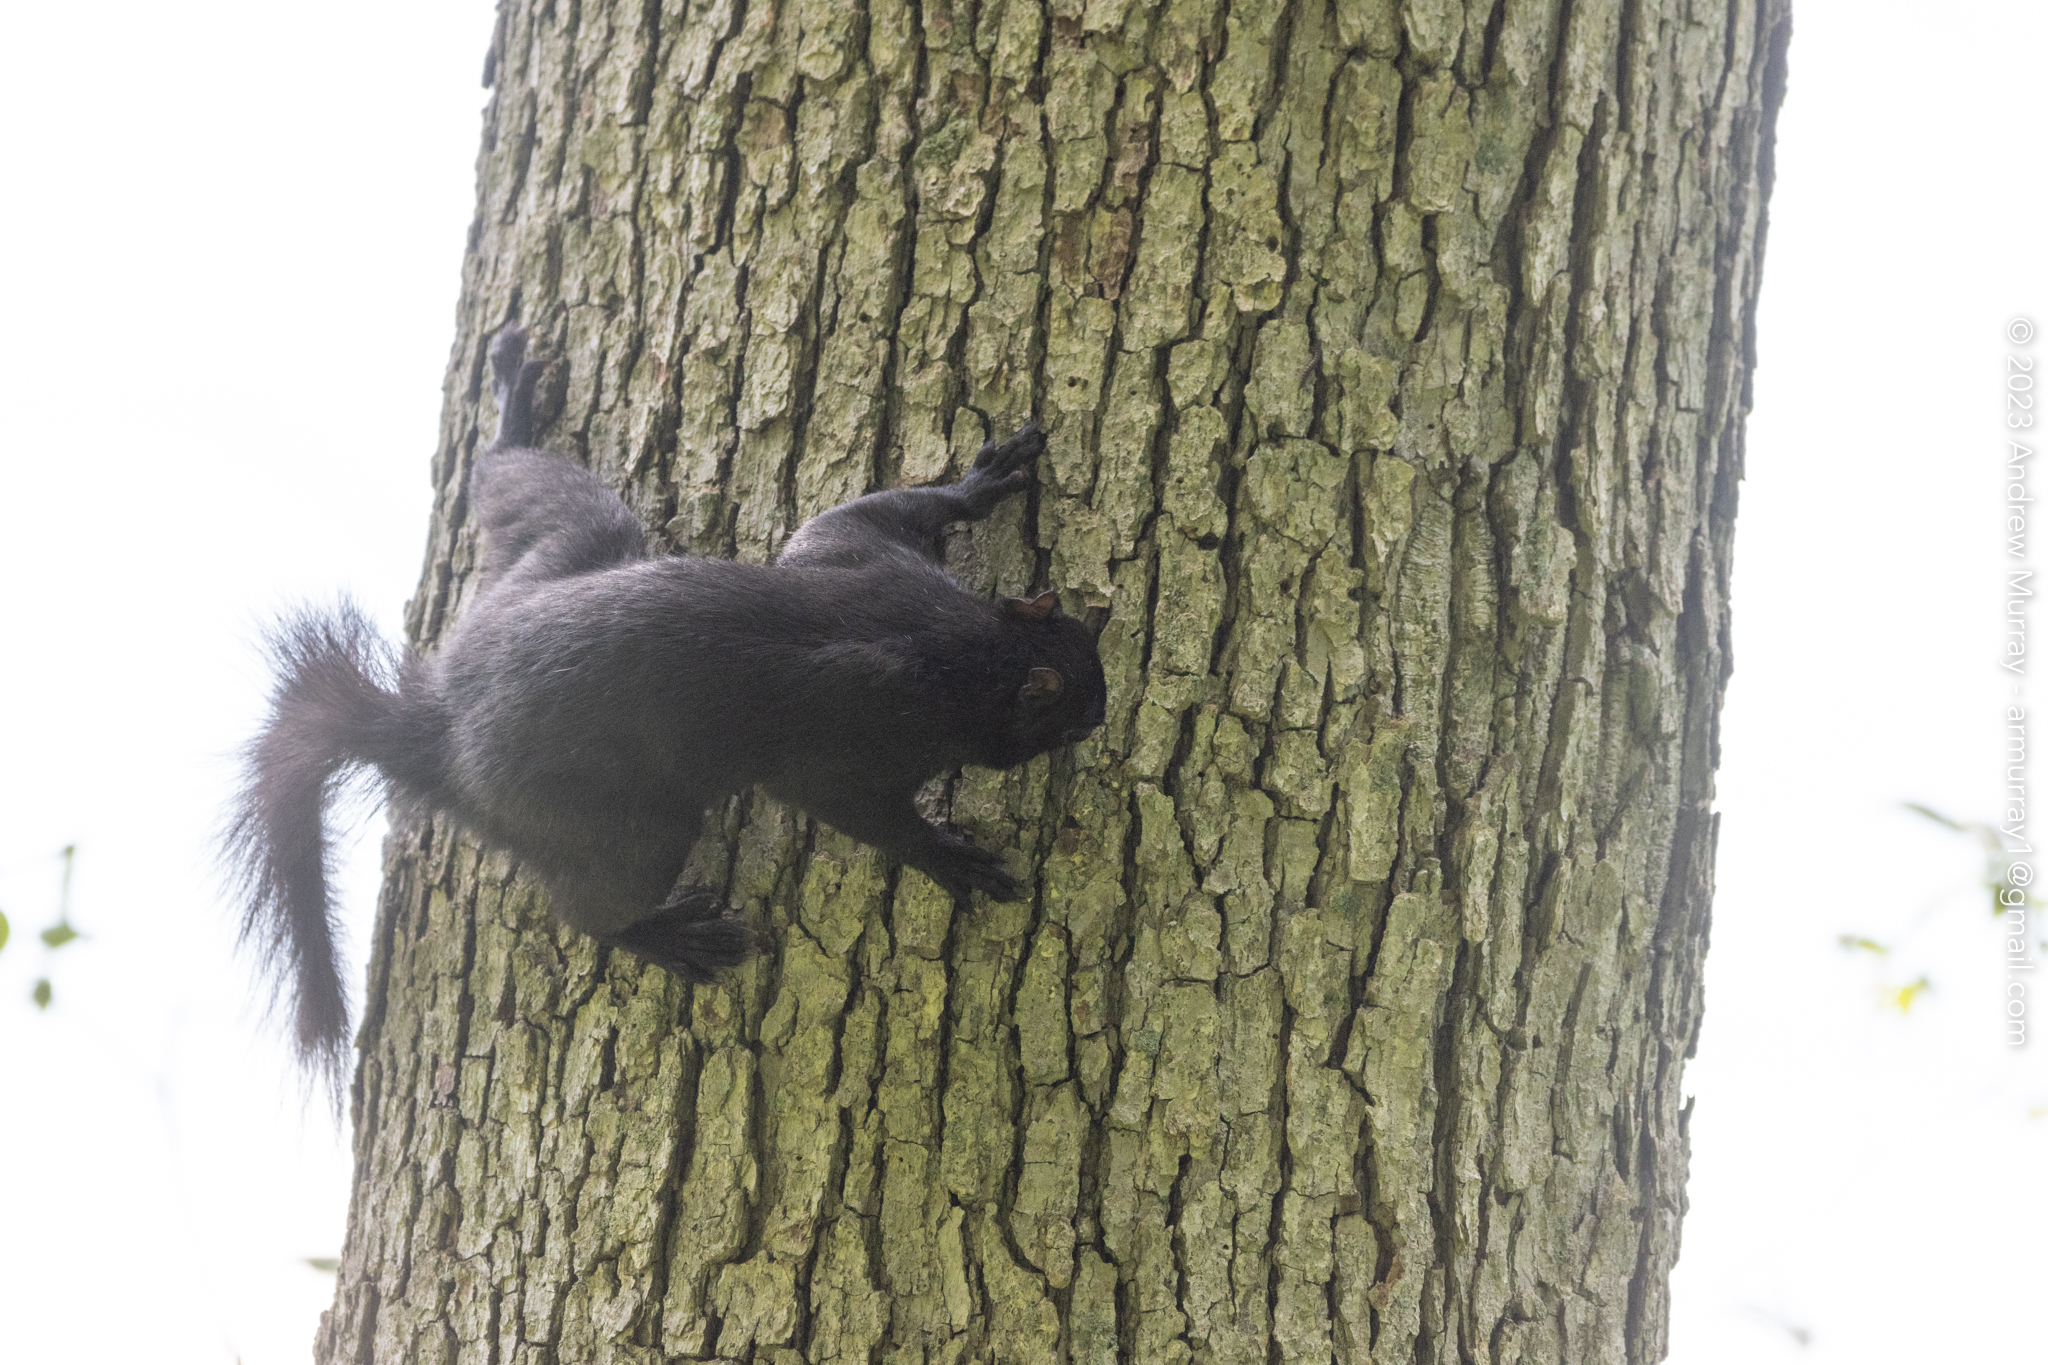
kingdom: Animalia
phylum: Chordata
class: Mammalia
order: Rodentia
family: Sciuridae
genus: Sciurus
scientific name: Sciurus carolinensis
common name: Eastern gray squirrel
